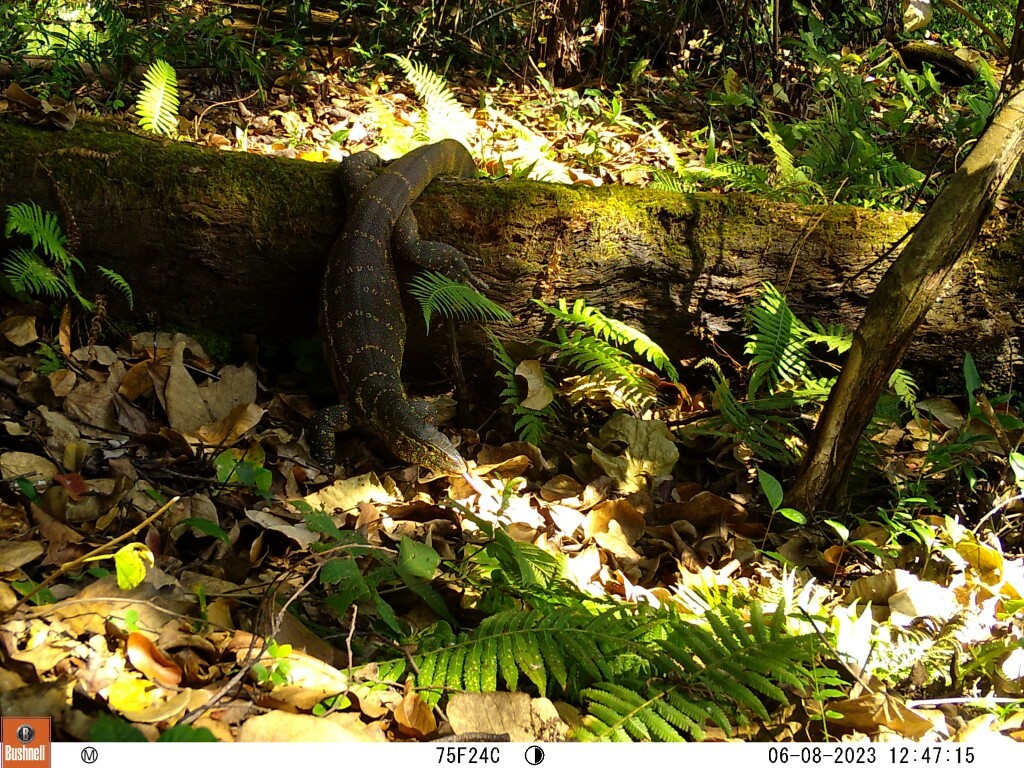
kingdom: Animalia
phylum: Chordata
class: Squamata
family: Varanidae
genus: Varanus
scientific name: Varanus niloticus
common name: Nile monitor
